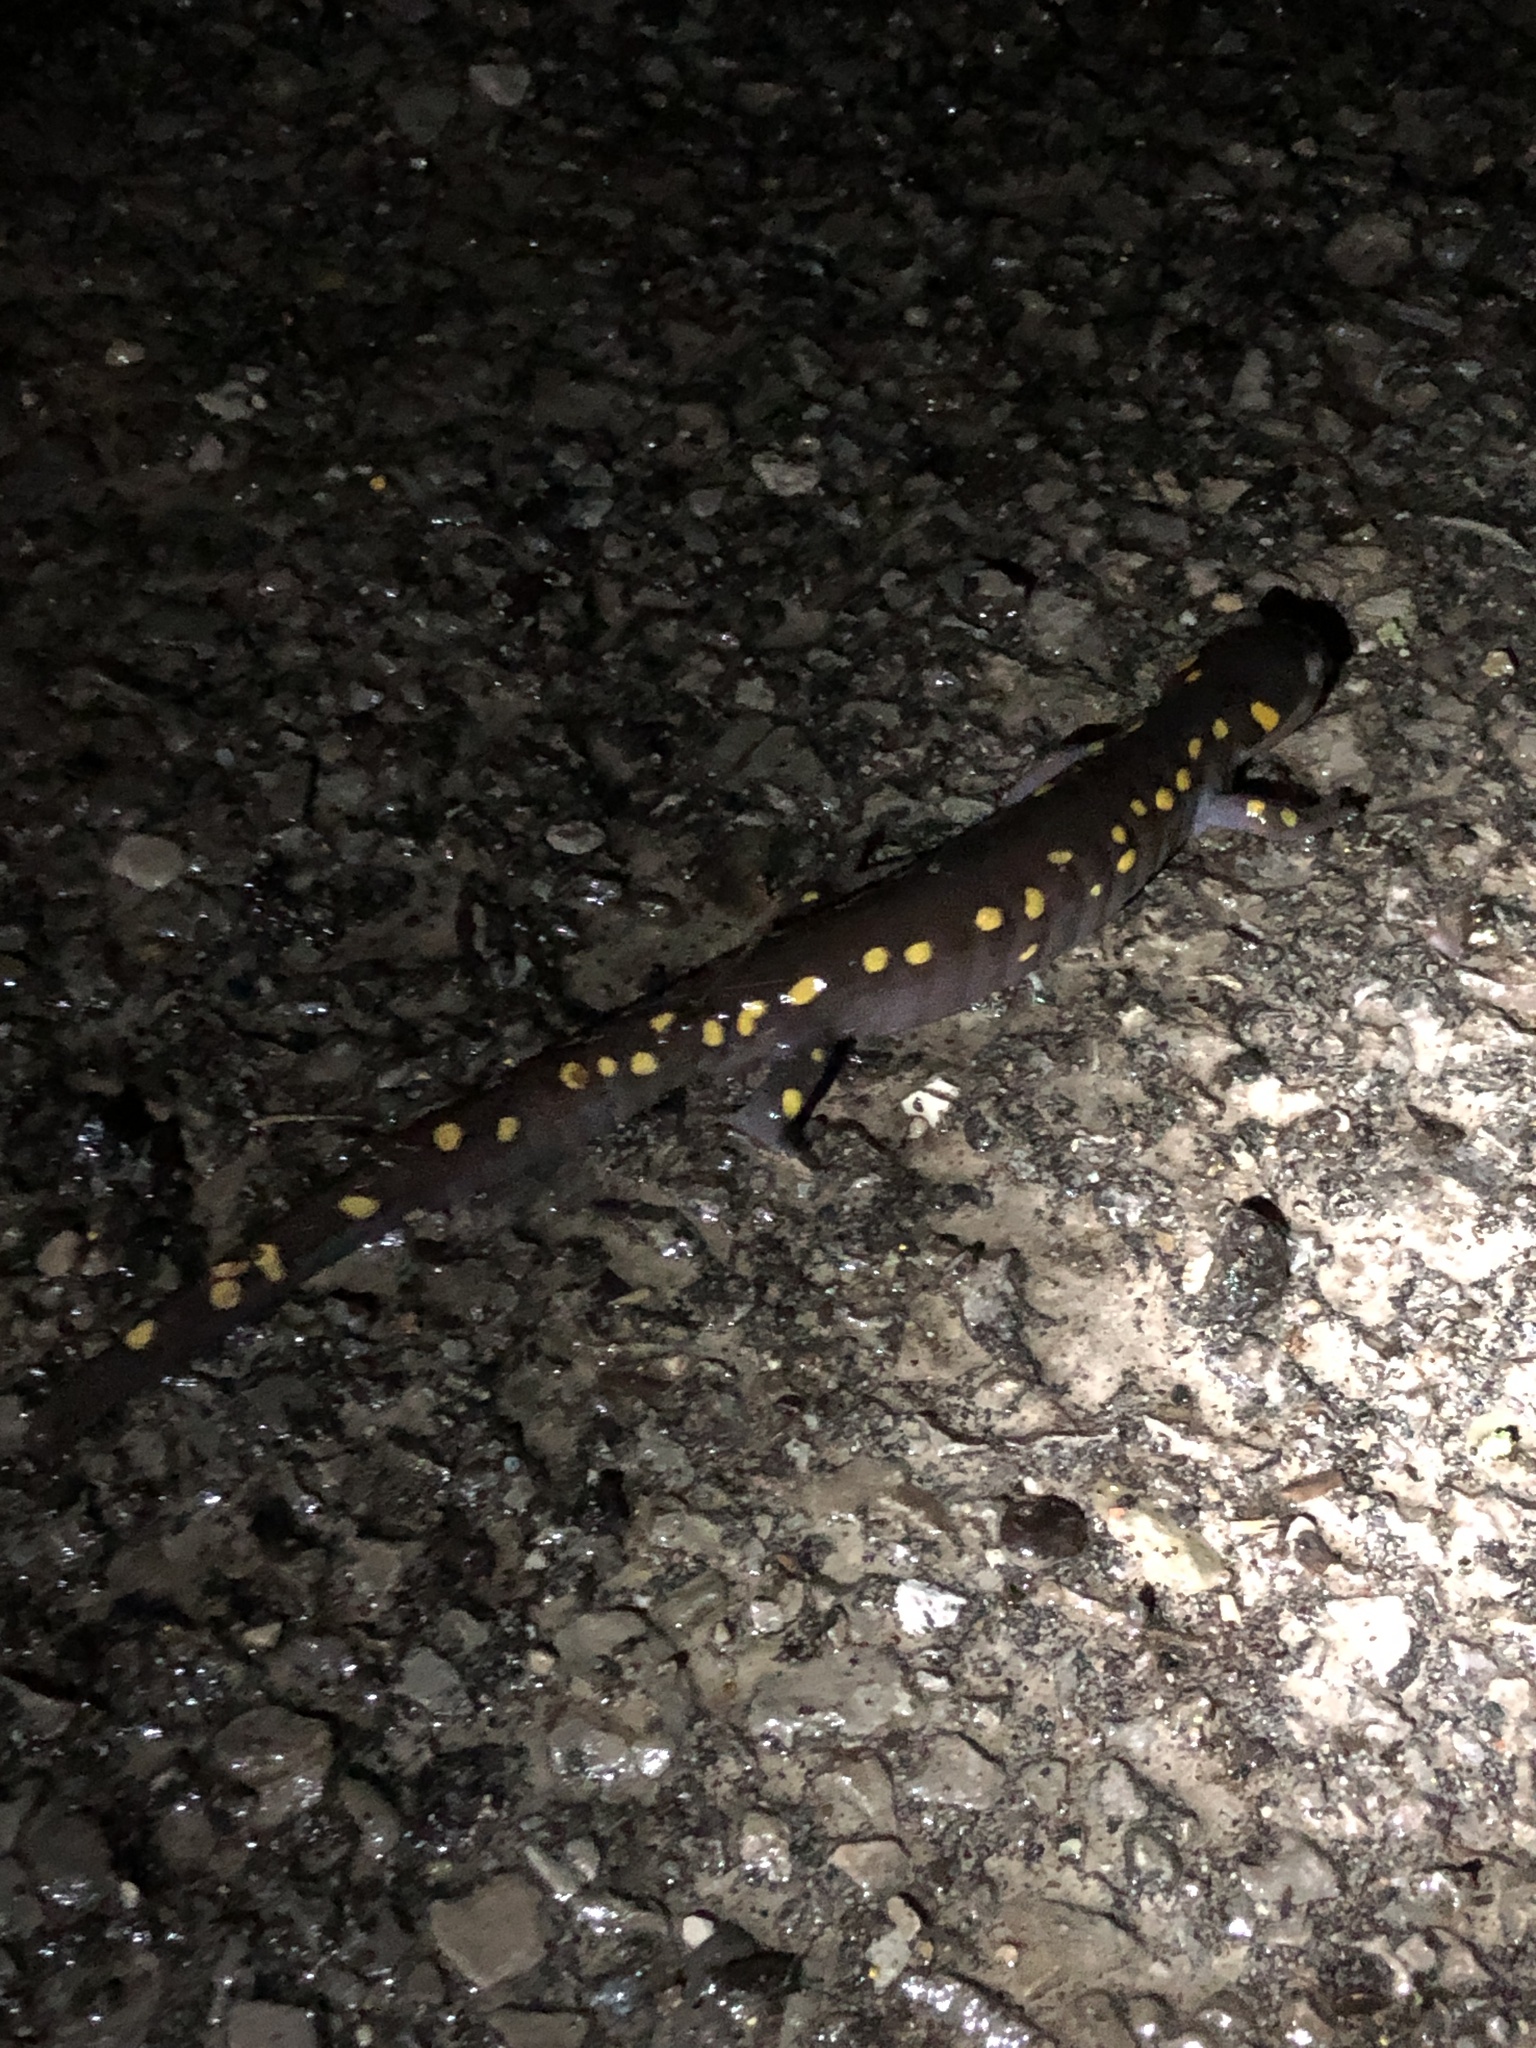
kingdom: Animalia
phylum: Chordata
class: Amphibia
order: Caudata
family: Ambystomatidae
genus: Ambystoma
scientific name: Ambystoma maculatum
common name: Spotted salamander
